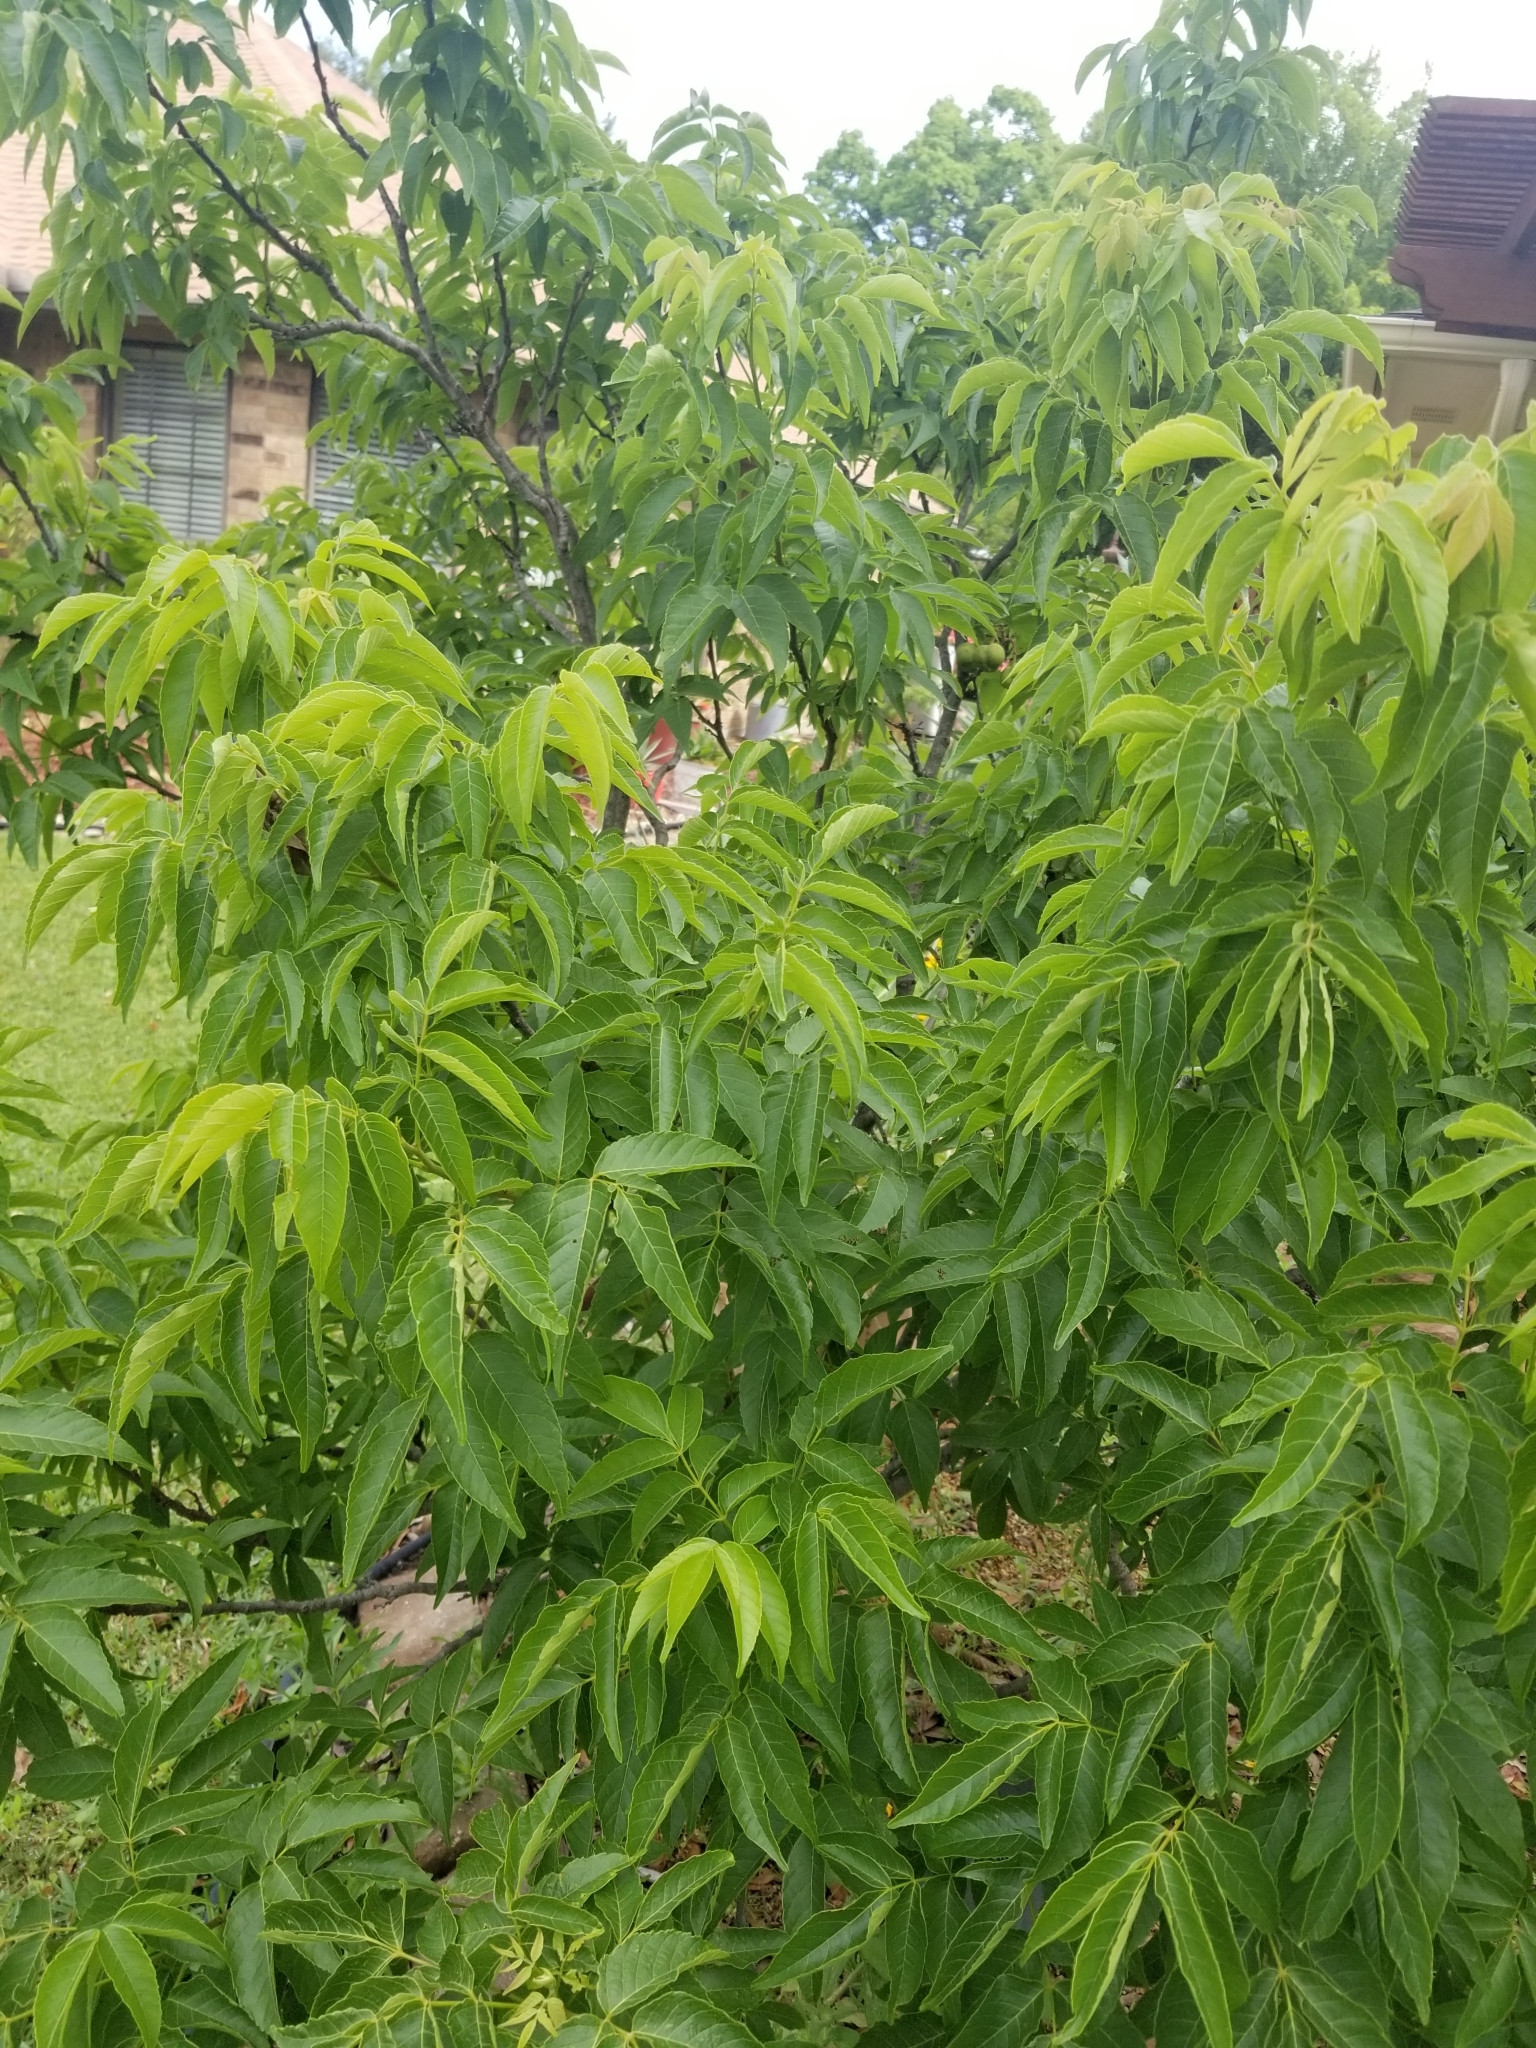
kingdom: Plantae
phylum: Tracheophyta
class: Magnoliopsida
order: Sapindales
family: Sapindaceae
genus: Ungnadia
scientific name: Ungnadia speciosa
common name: Texas-buckeye
